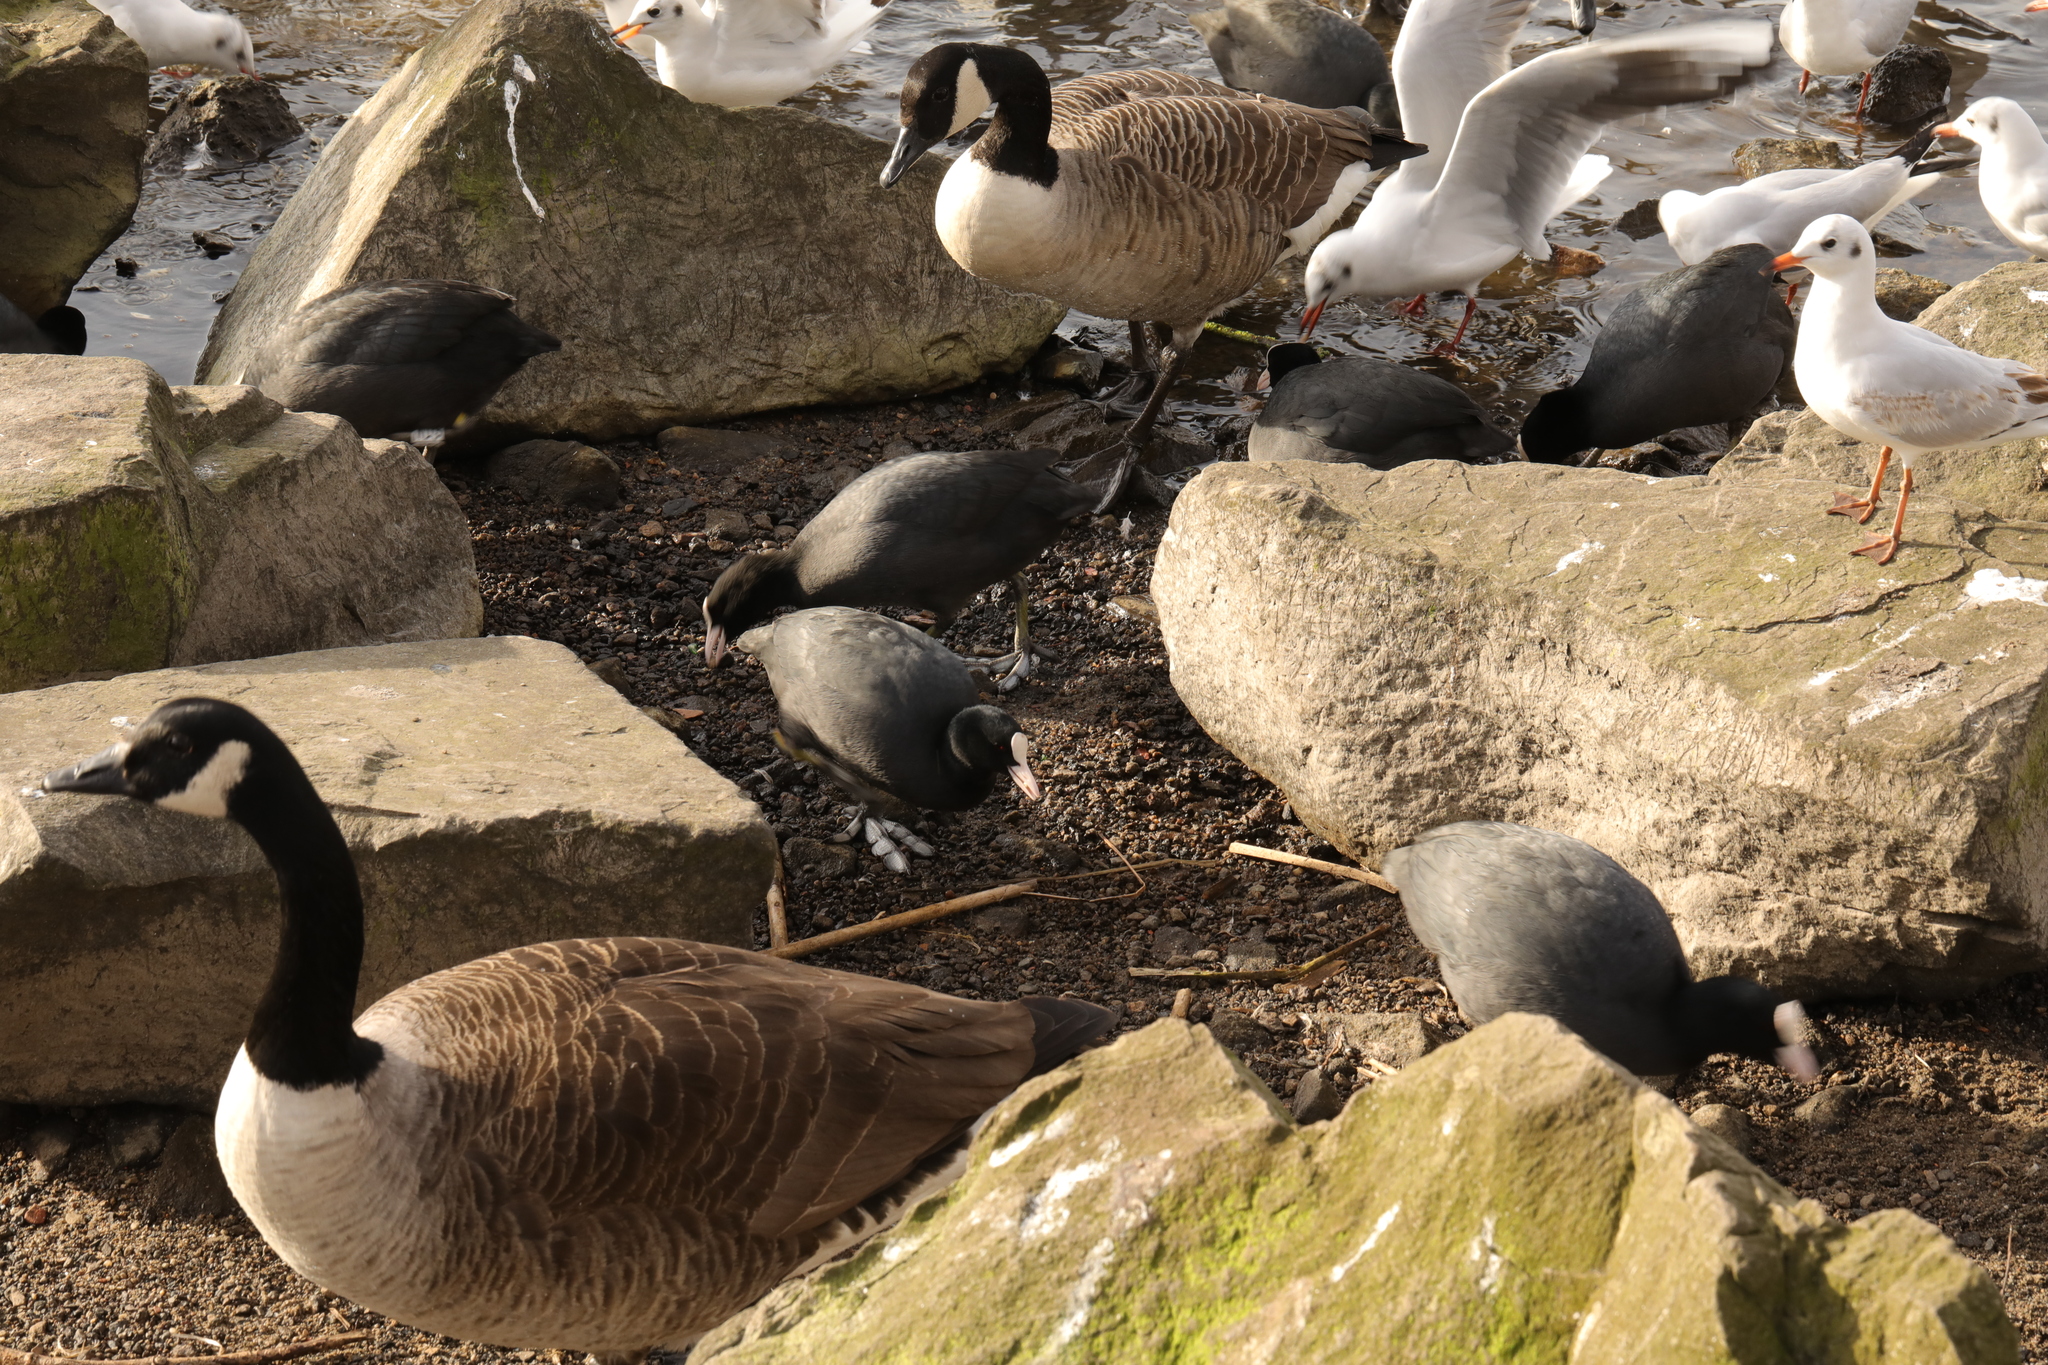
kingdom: Animalia
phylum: Chordata
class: Aves
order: Anseriformes
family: Anatidae
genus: Branta
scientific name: Branta canadensis
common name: Canada goose
